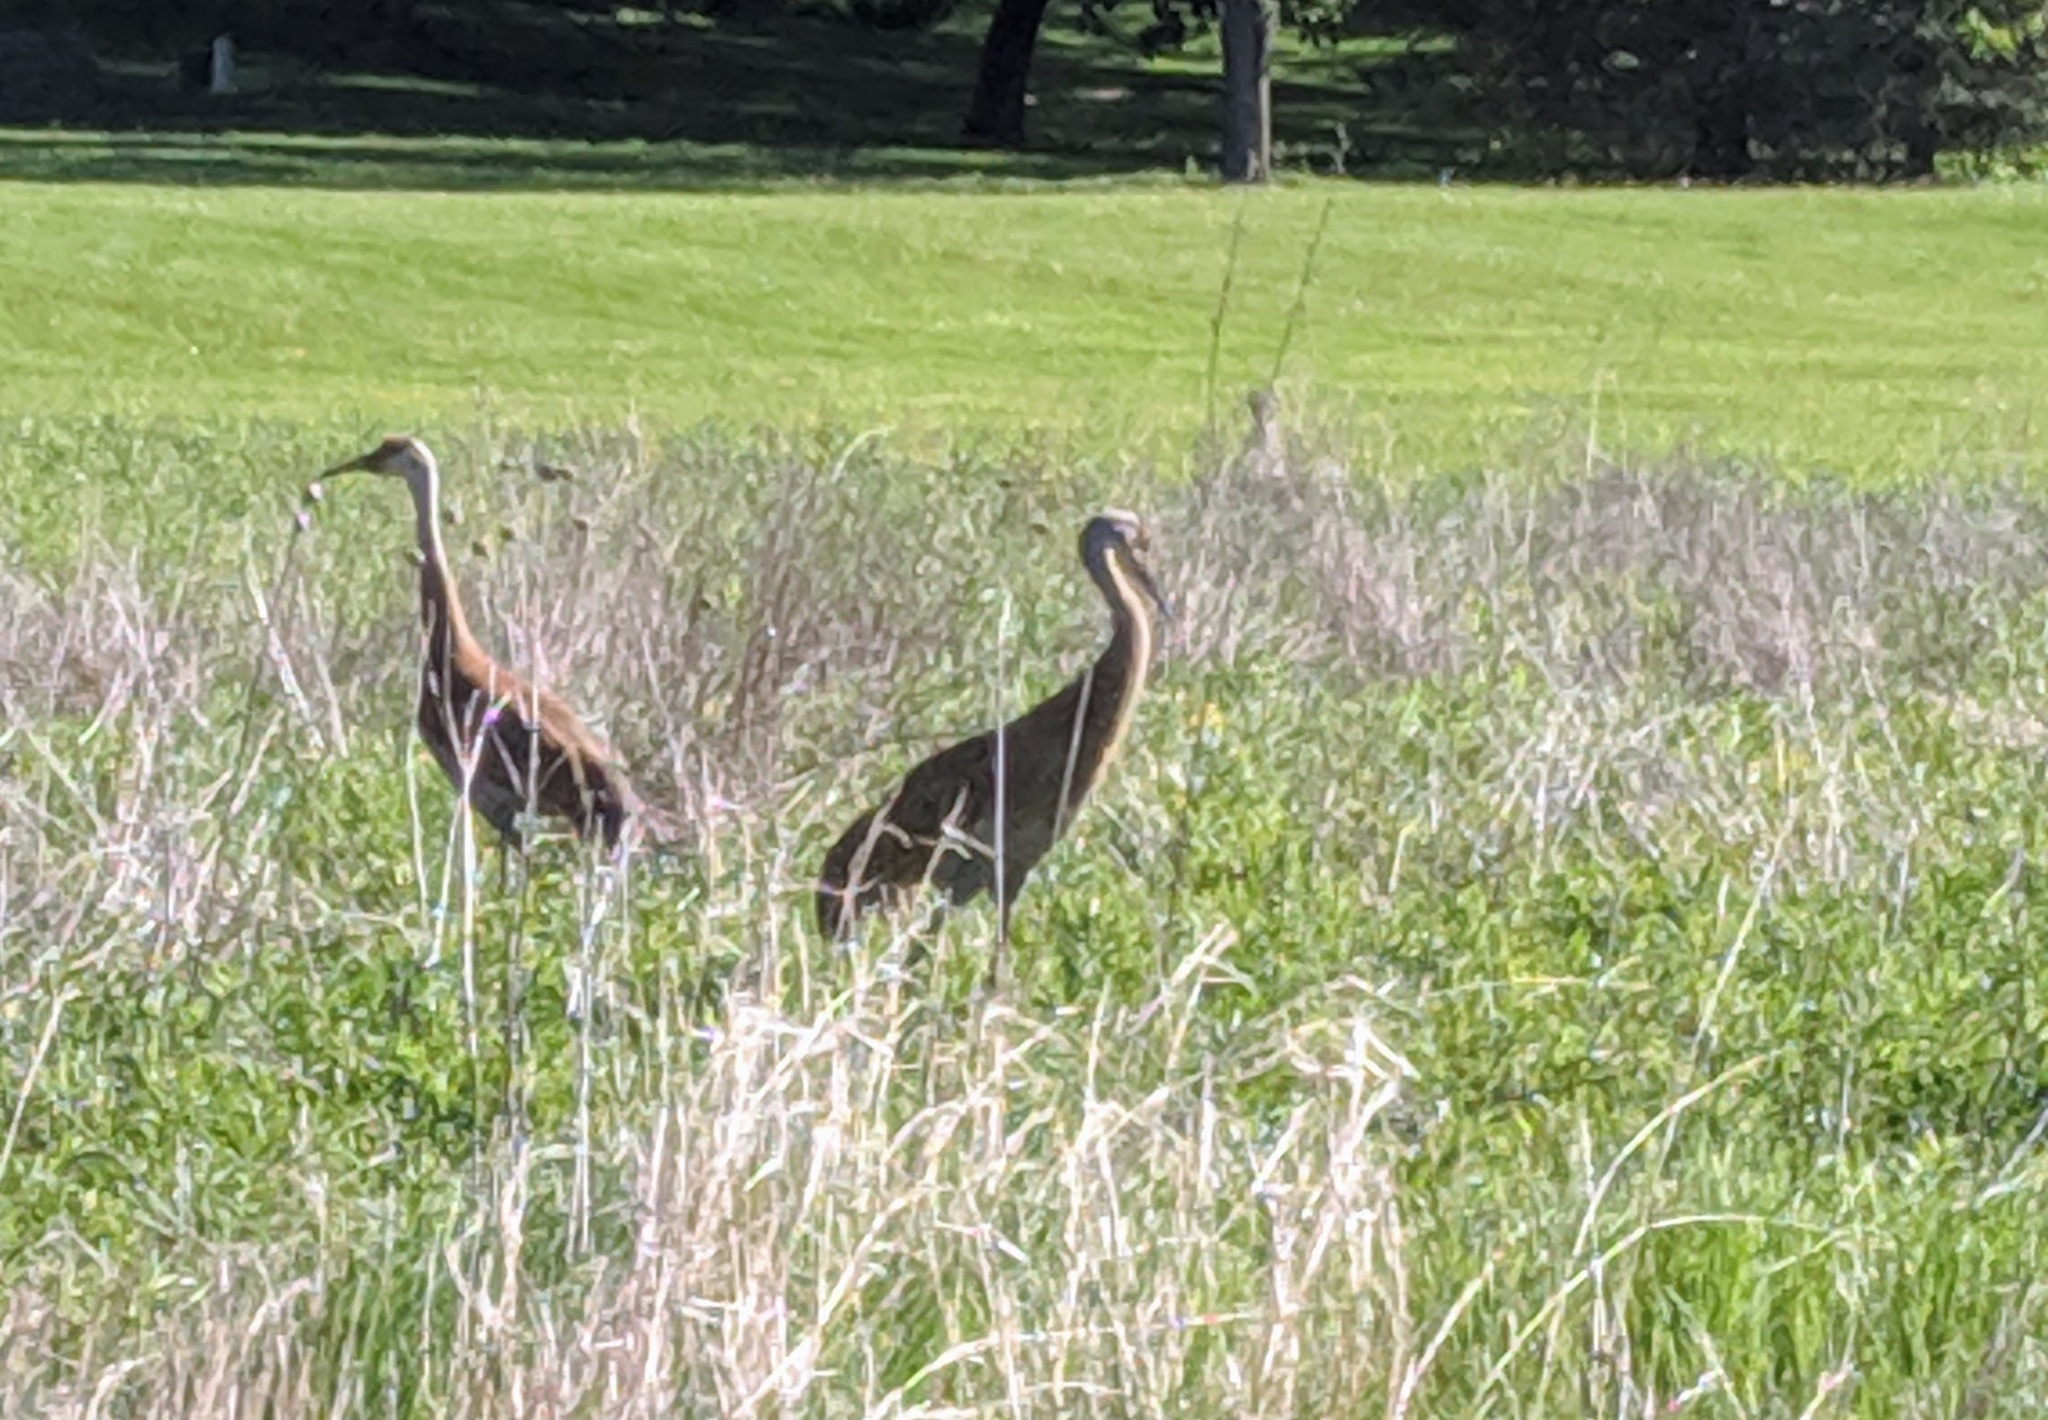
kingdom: Animalia
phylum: Chordata
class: Aves
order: Gruiformes
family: Gruidae
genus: Grus
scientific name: Grus canadensis
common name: Sandhill crane
